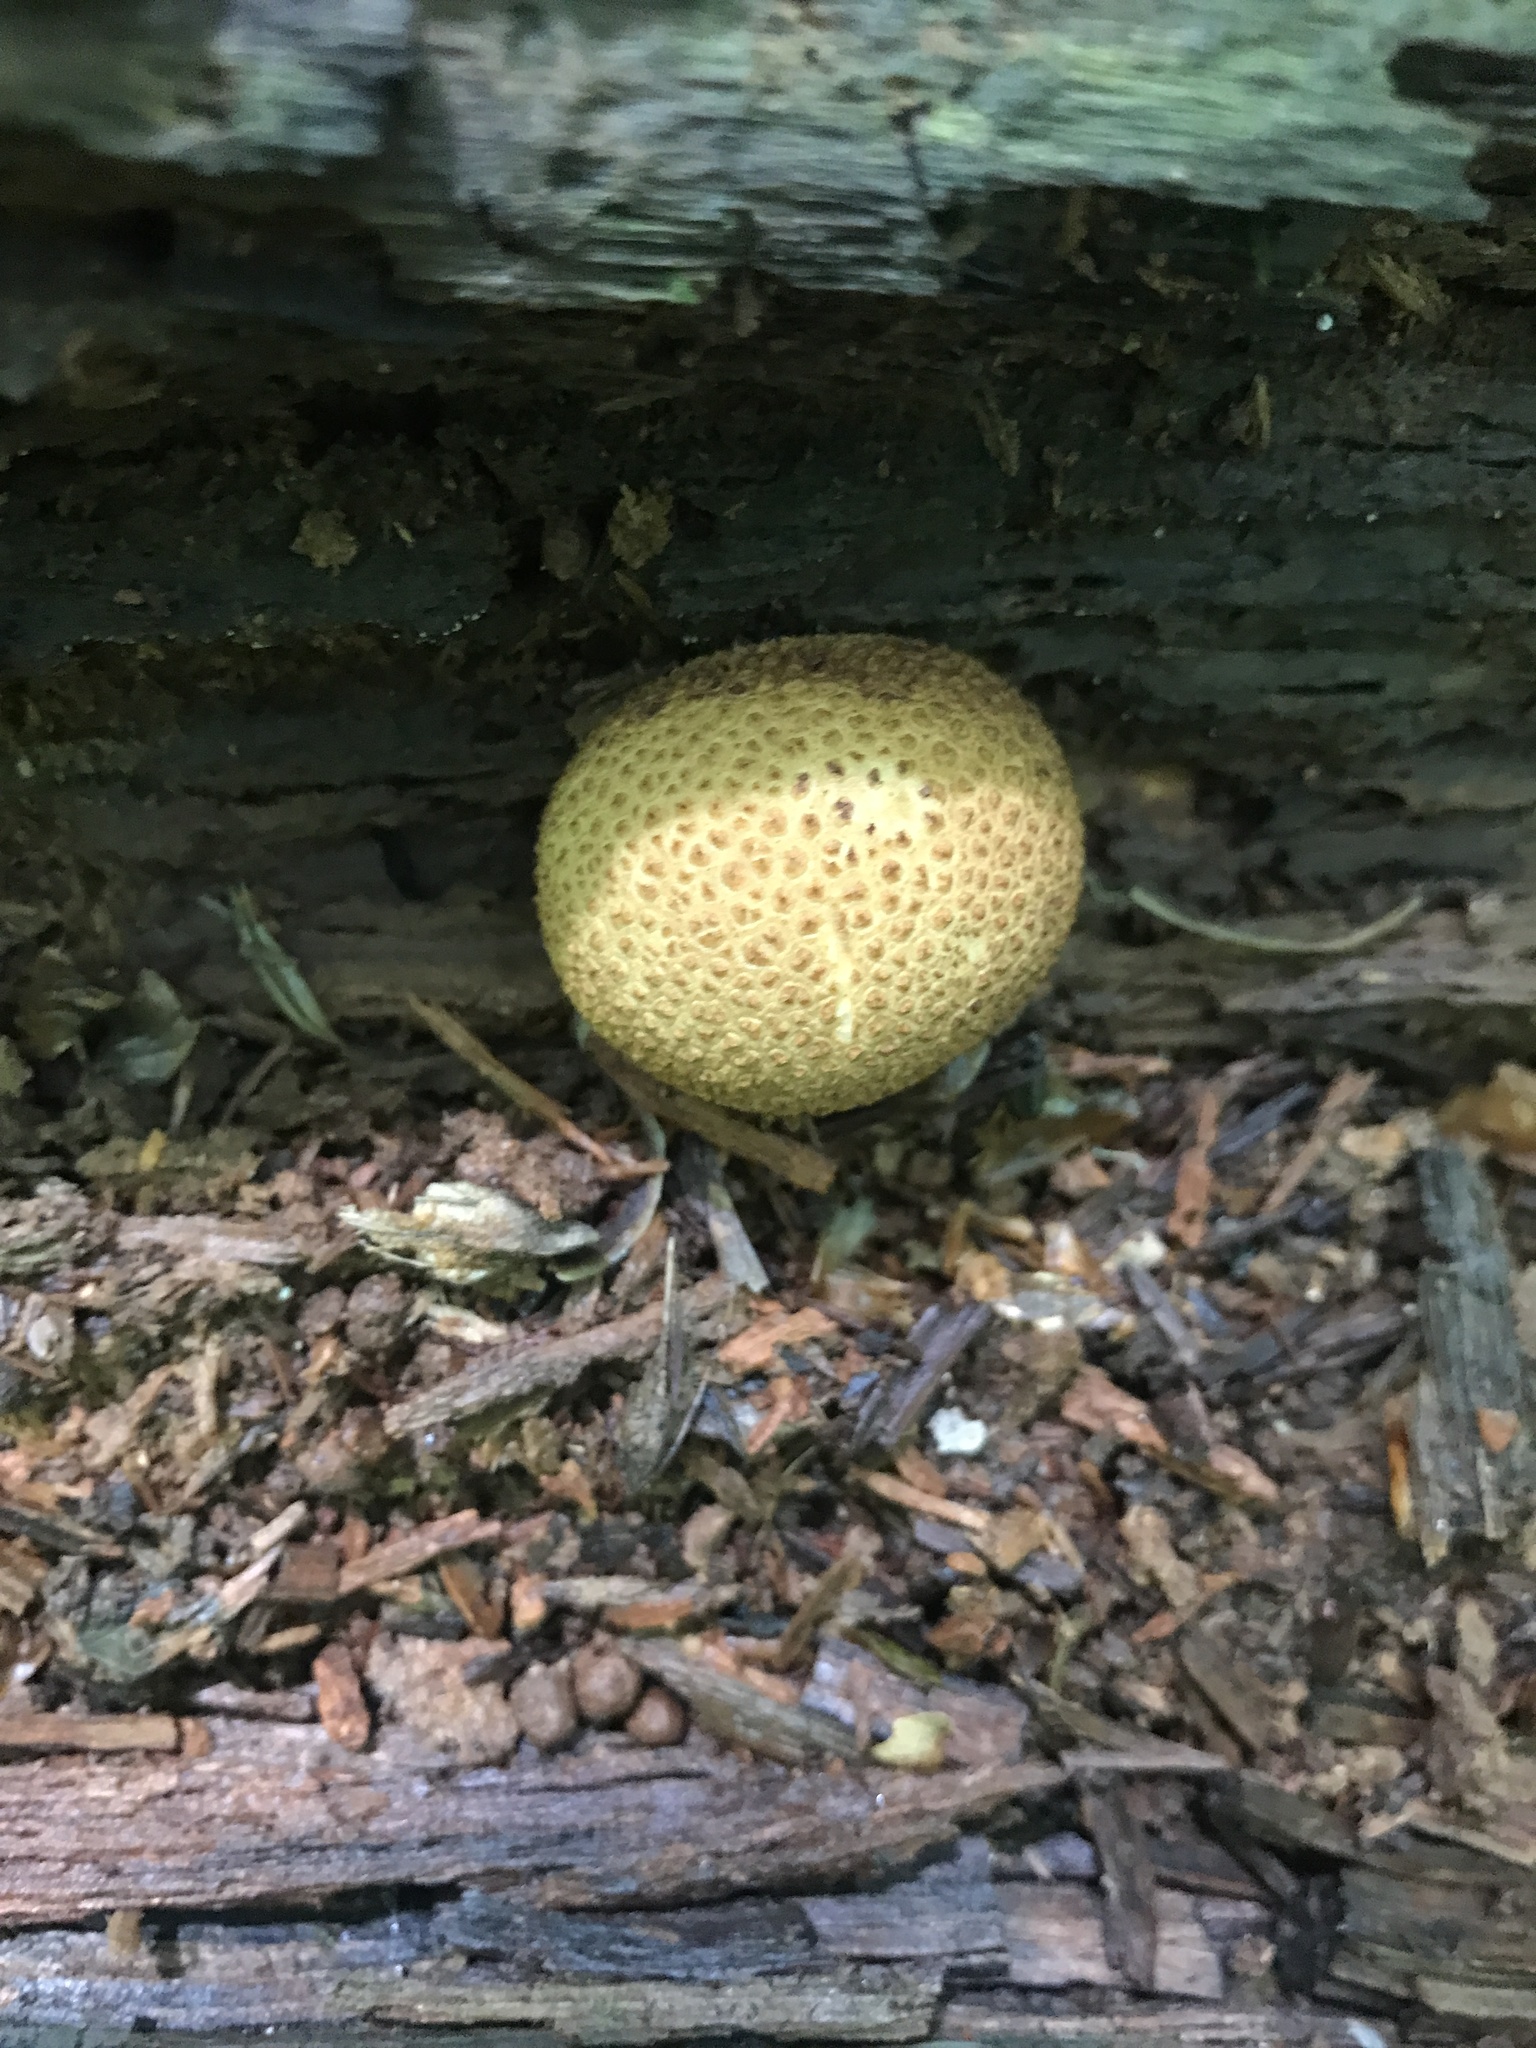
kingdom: Fungi
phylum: Basidiomycota
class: Agaricomycetes
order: Boletales
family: Sclerodermataceae
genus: Scleroderma
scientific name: Scleroderma citrinum
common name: Common earthball
